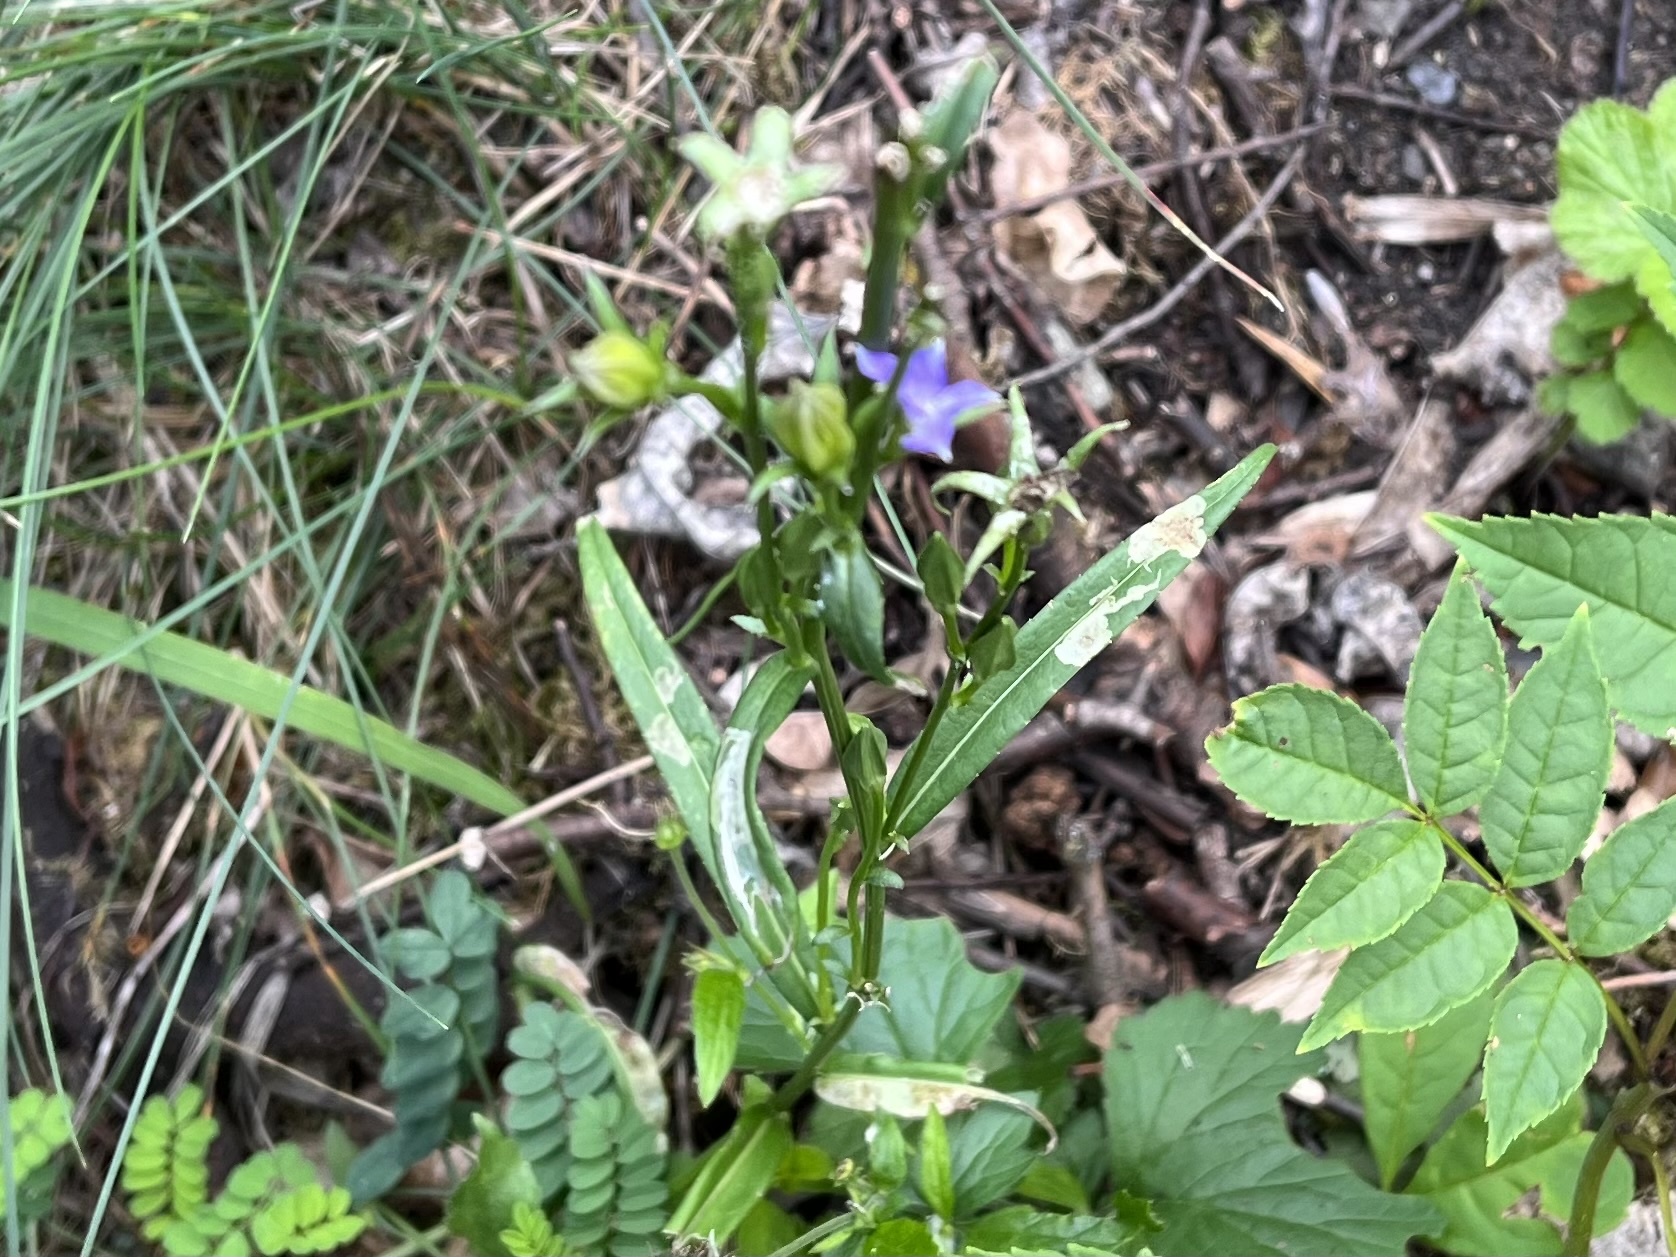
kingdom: Plantae
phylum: Tracheophyta
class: Magnoliopsida
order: Asterales
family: Campanulaceae
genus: Campanula
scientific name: Campanula persicifolia
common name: Peach-leaved bellflower
